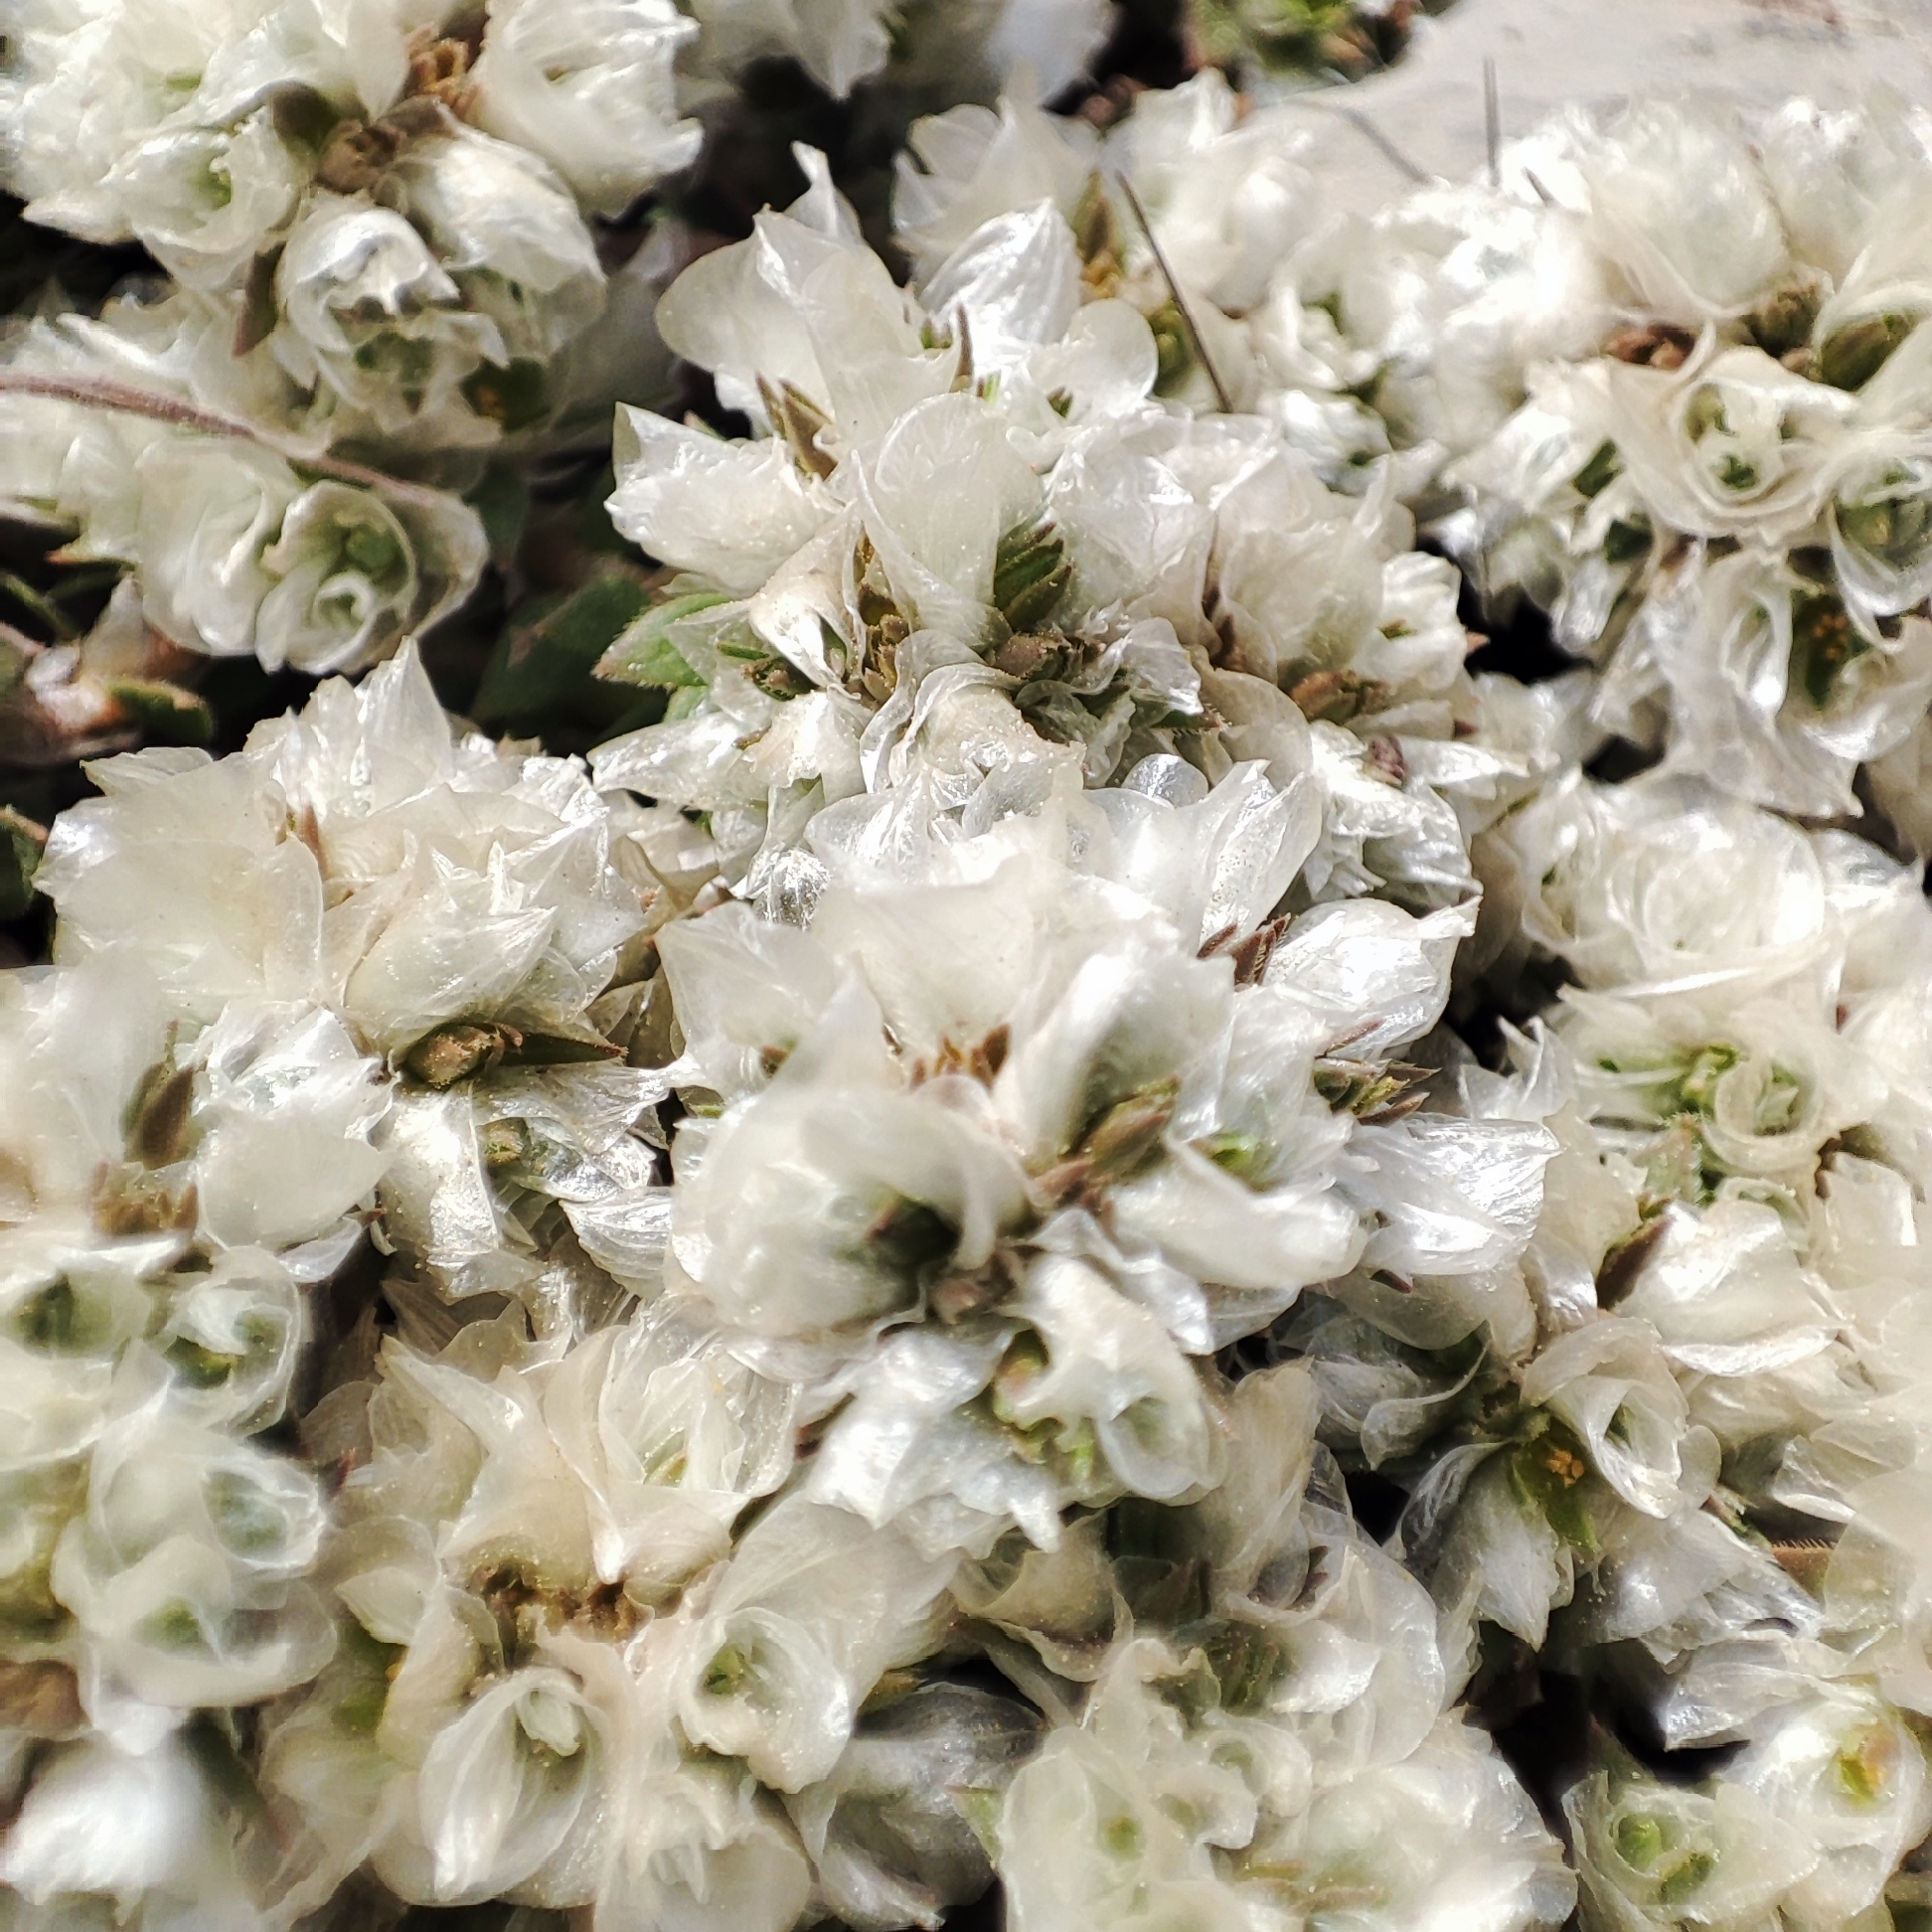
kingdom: Plantae
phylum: Tracheophyta
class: Magnoliopsida
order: Caryophyllales
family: Caryophyllaceae
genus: Paronychia
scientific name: Paronychia argentea
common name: Silver nailroot
